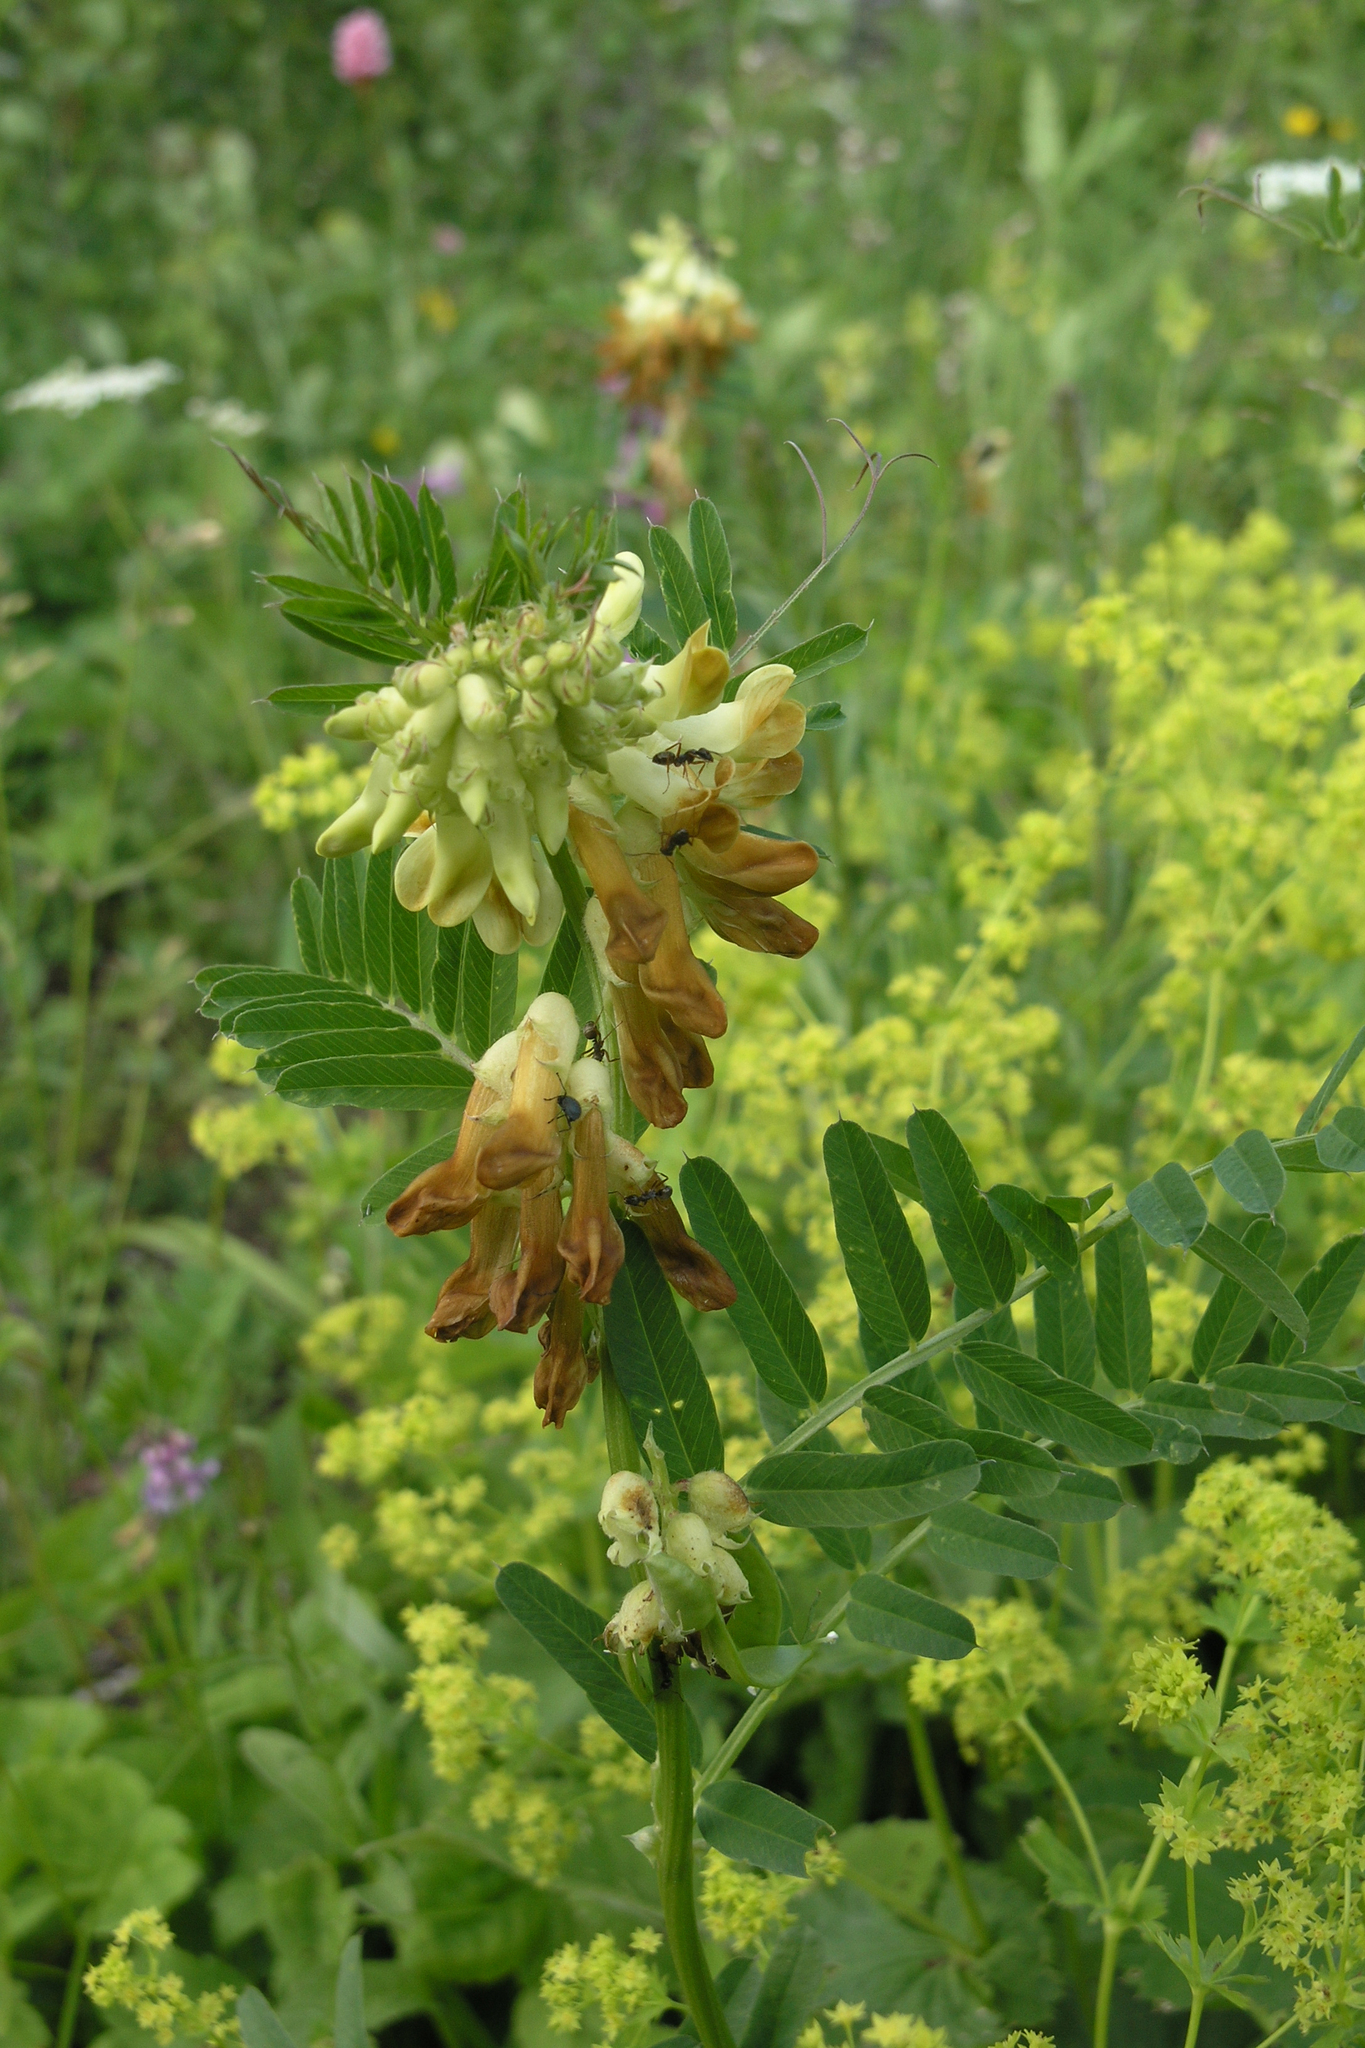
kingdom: Plantae
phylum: Tracheophyta
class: Magnoliopsida
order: Fabales
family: Fabaceae
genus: Vicia
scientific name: Vicia balansae
